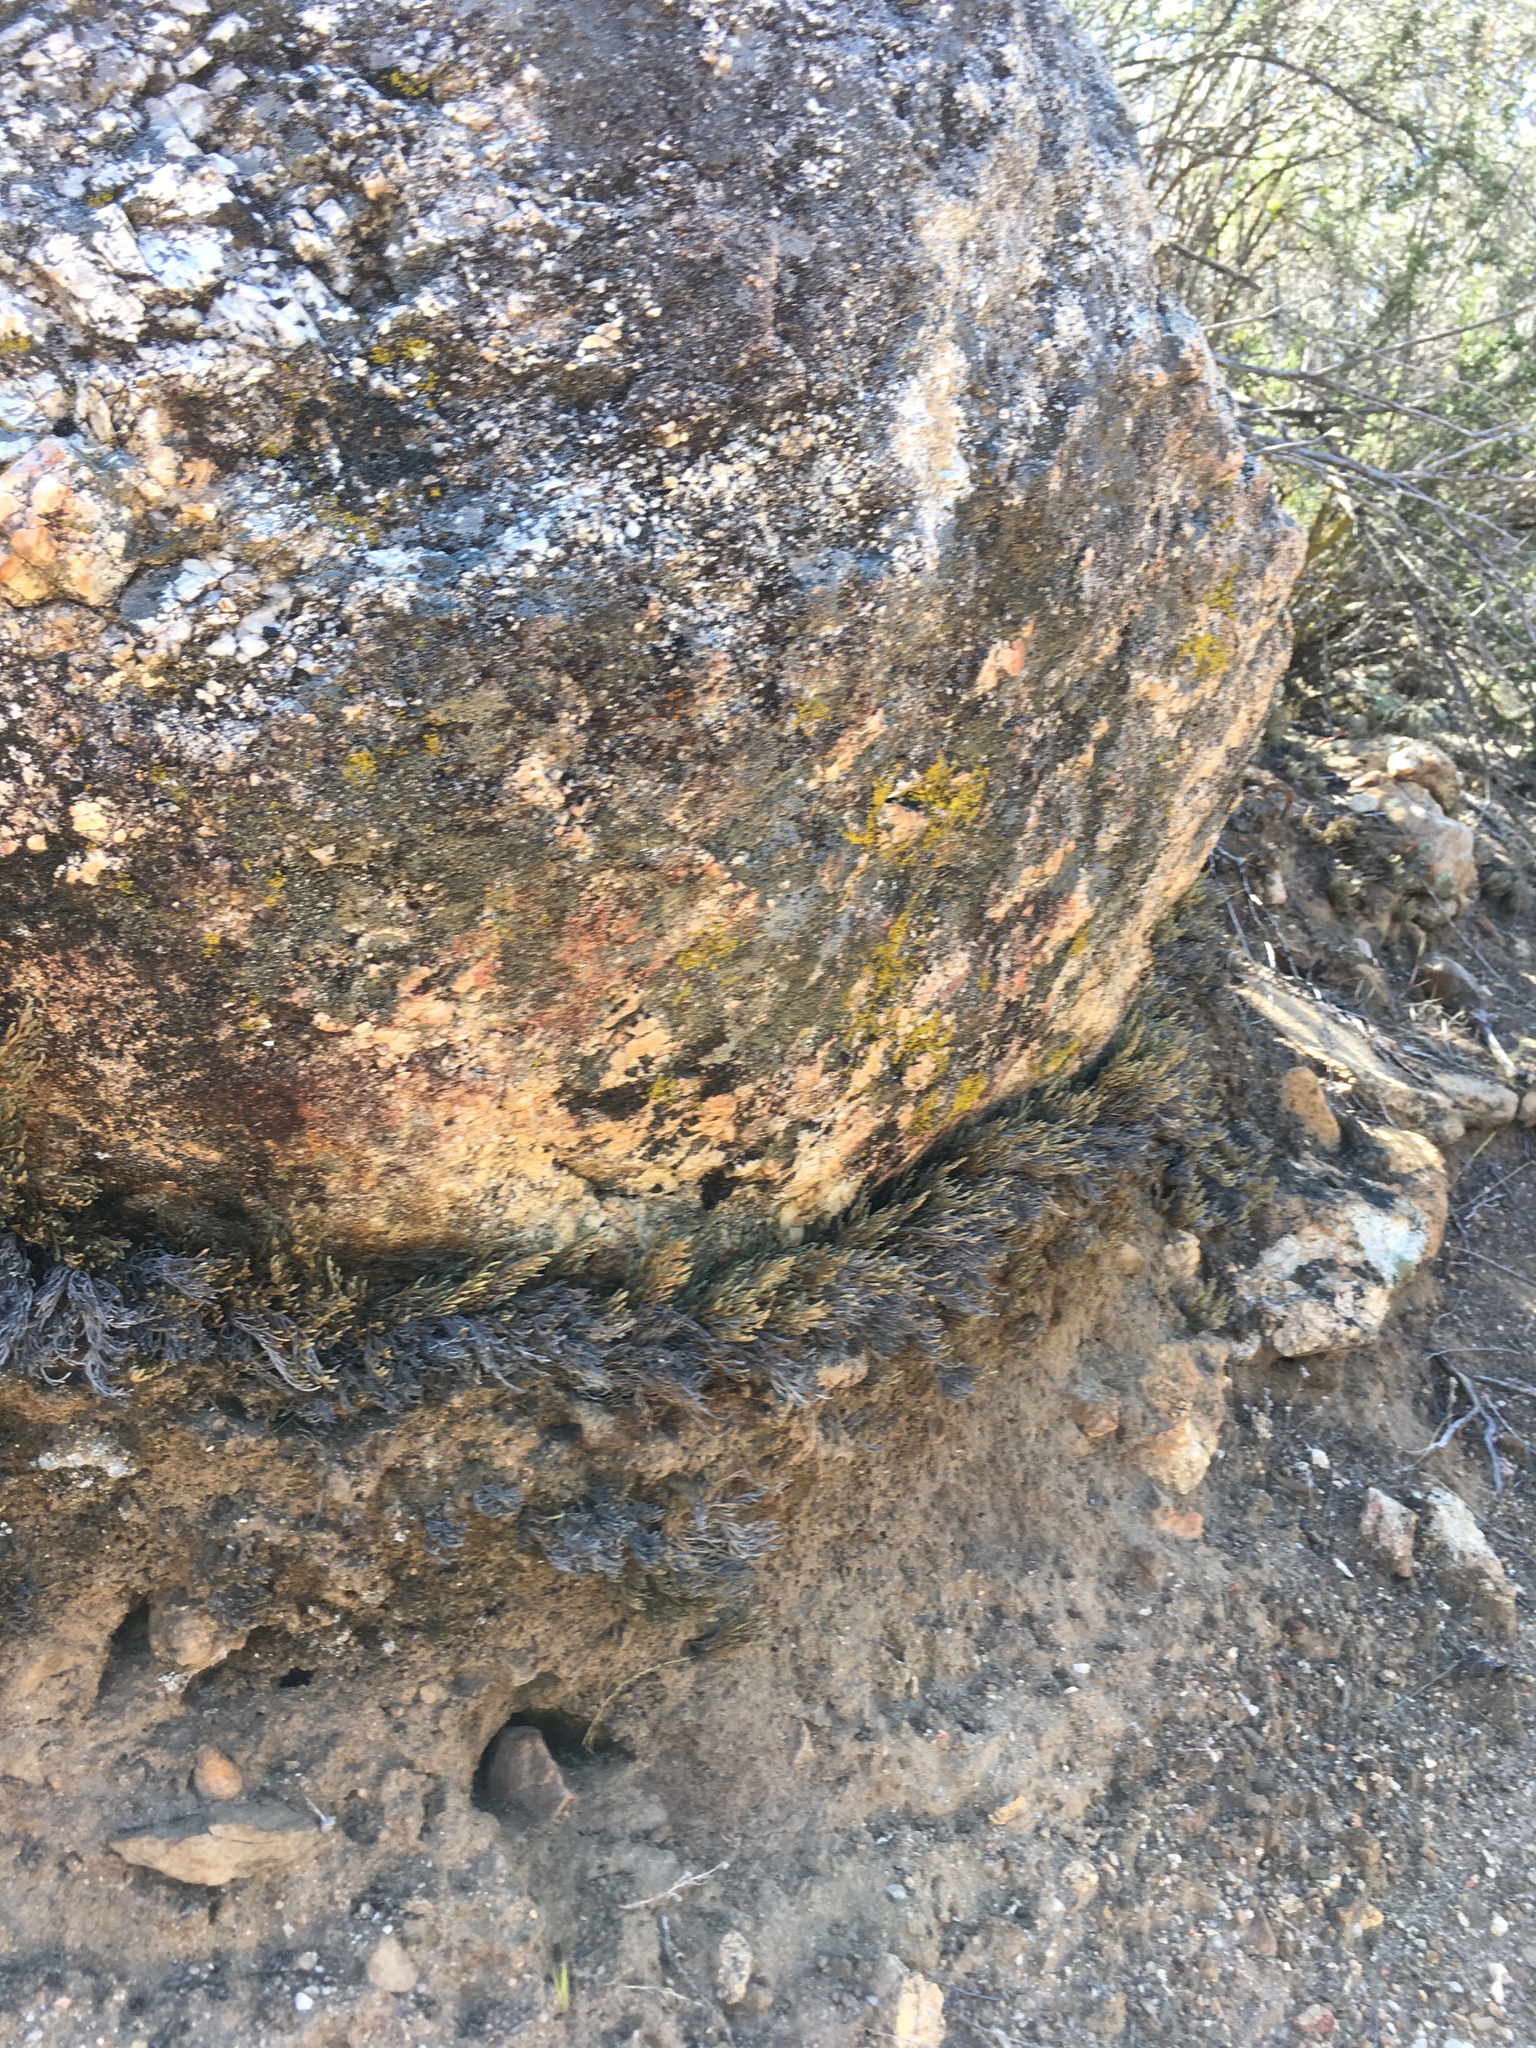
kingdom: Plantae
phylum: Tracheophyta
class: Lycopodiopsida
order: Selaginellales
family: Selaginellaceae
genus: Selaginella
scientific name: Selaginella bigelovii
